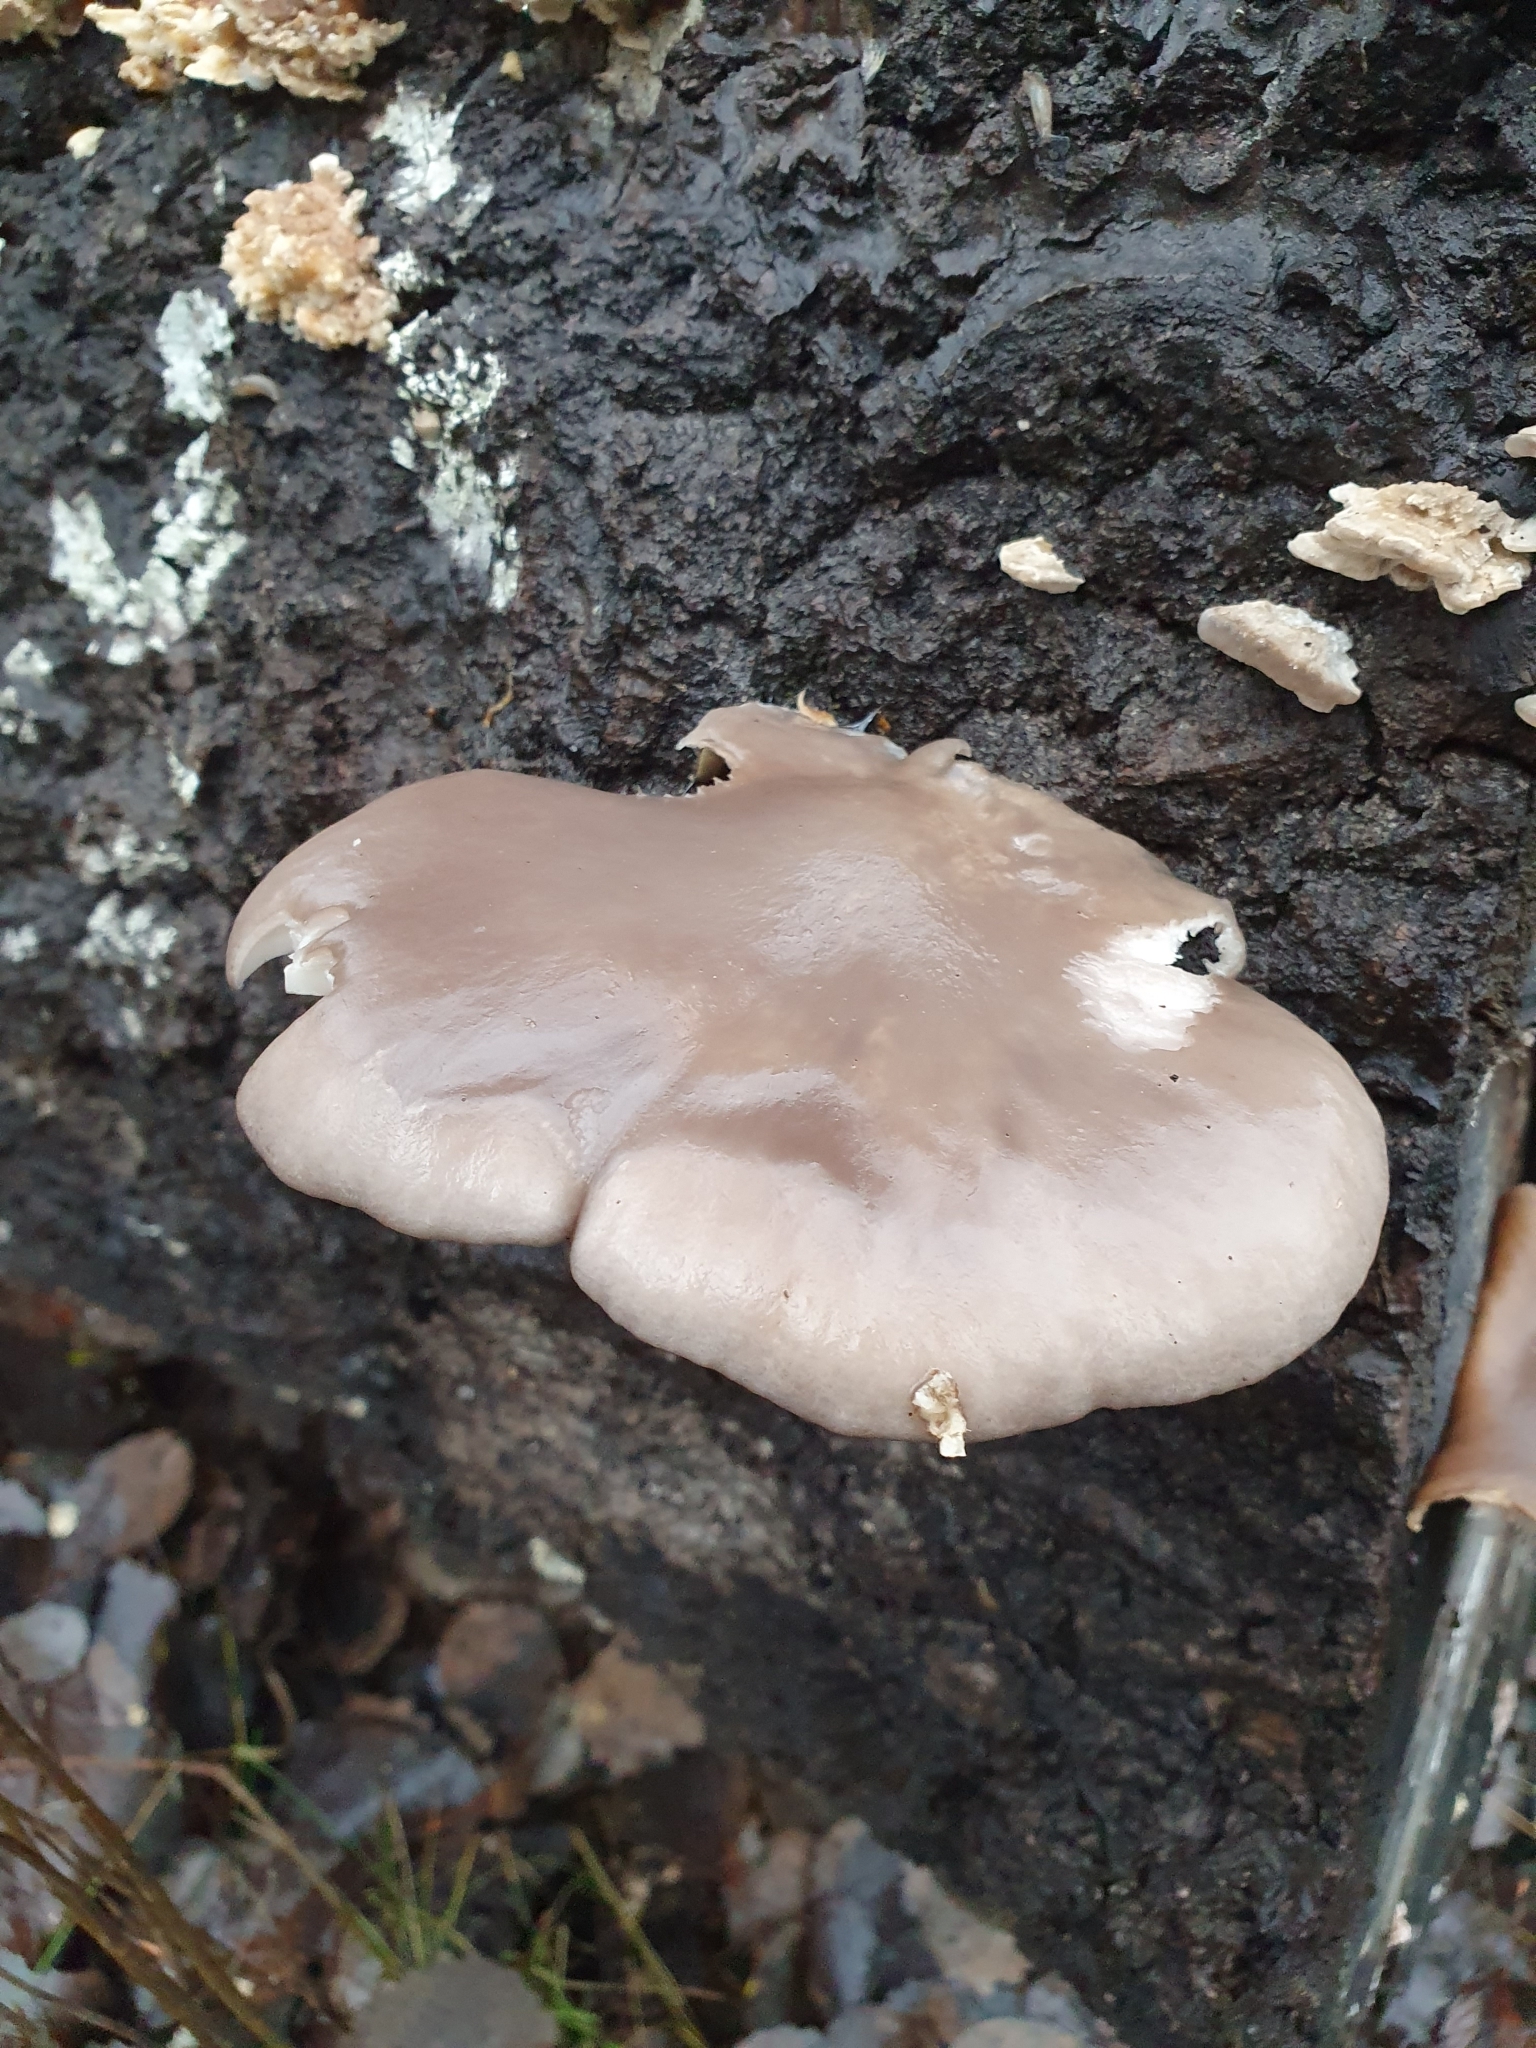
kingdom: Fungi
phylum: Basidiomycota
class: Agaricomycetes
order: Agaricales
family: Pleurotaceae
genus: Pleurotus
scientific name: Pleurotus ostreatus
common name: Oyster mushroom
